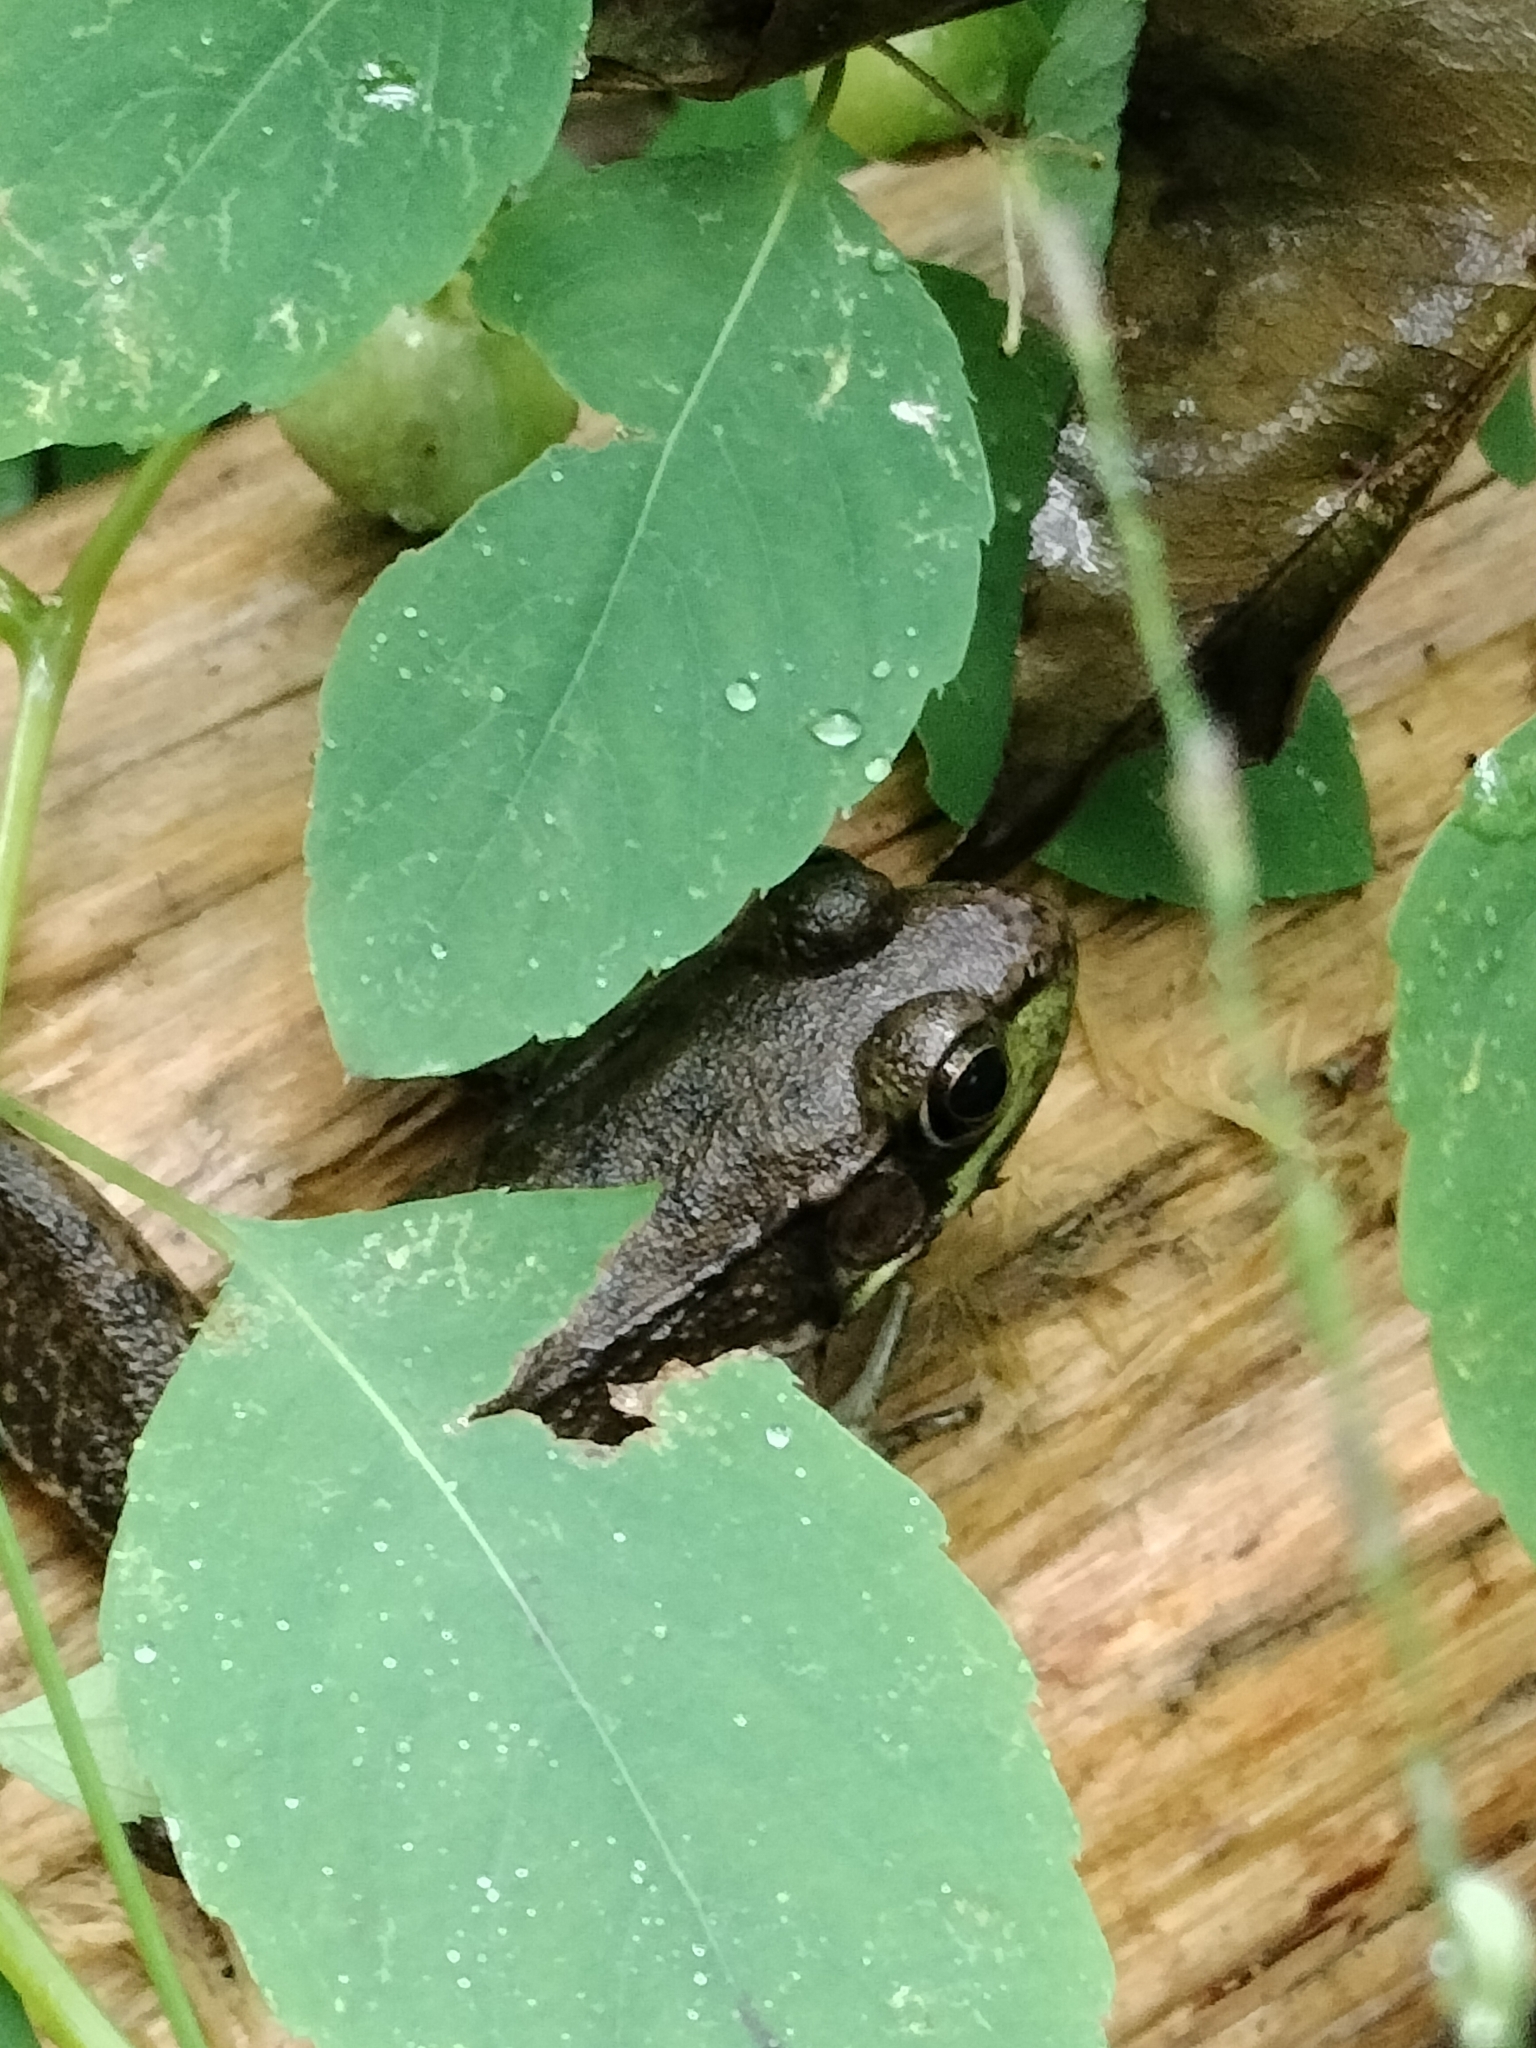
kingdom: Animalia
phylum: Chordata
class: Amphibia
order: Anura
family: Ranidae
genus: Lithobates
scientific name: Lithobates clamitans
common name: Green frog
